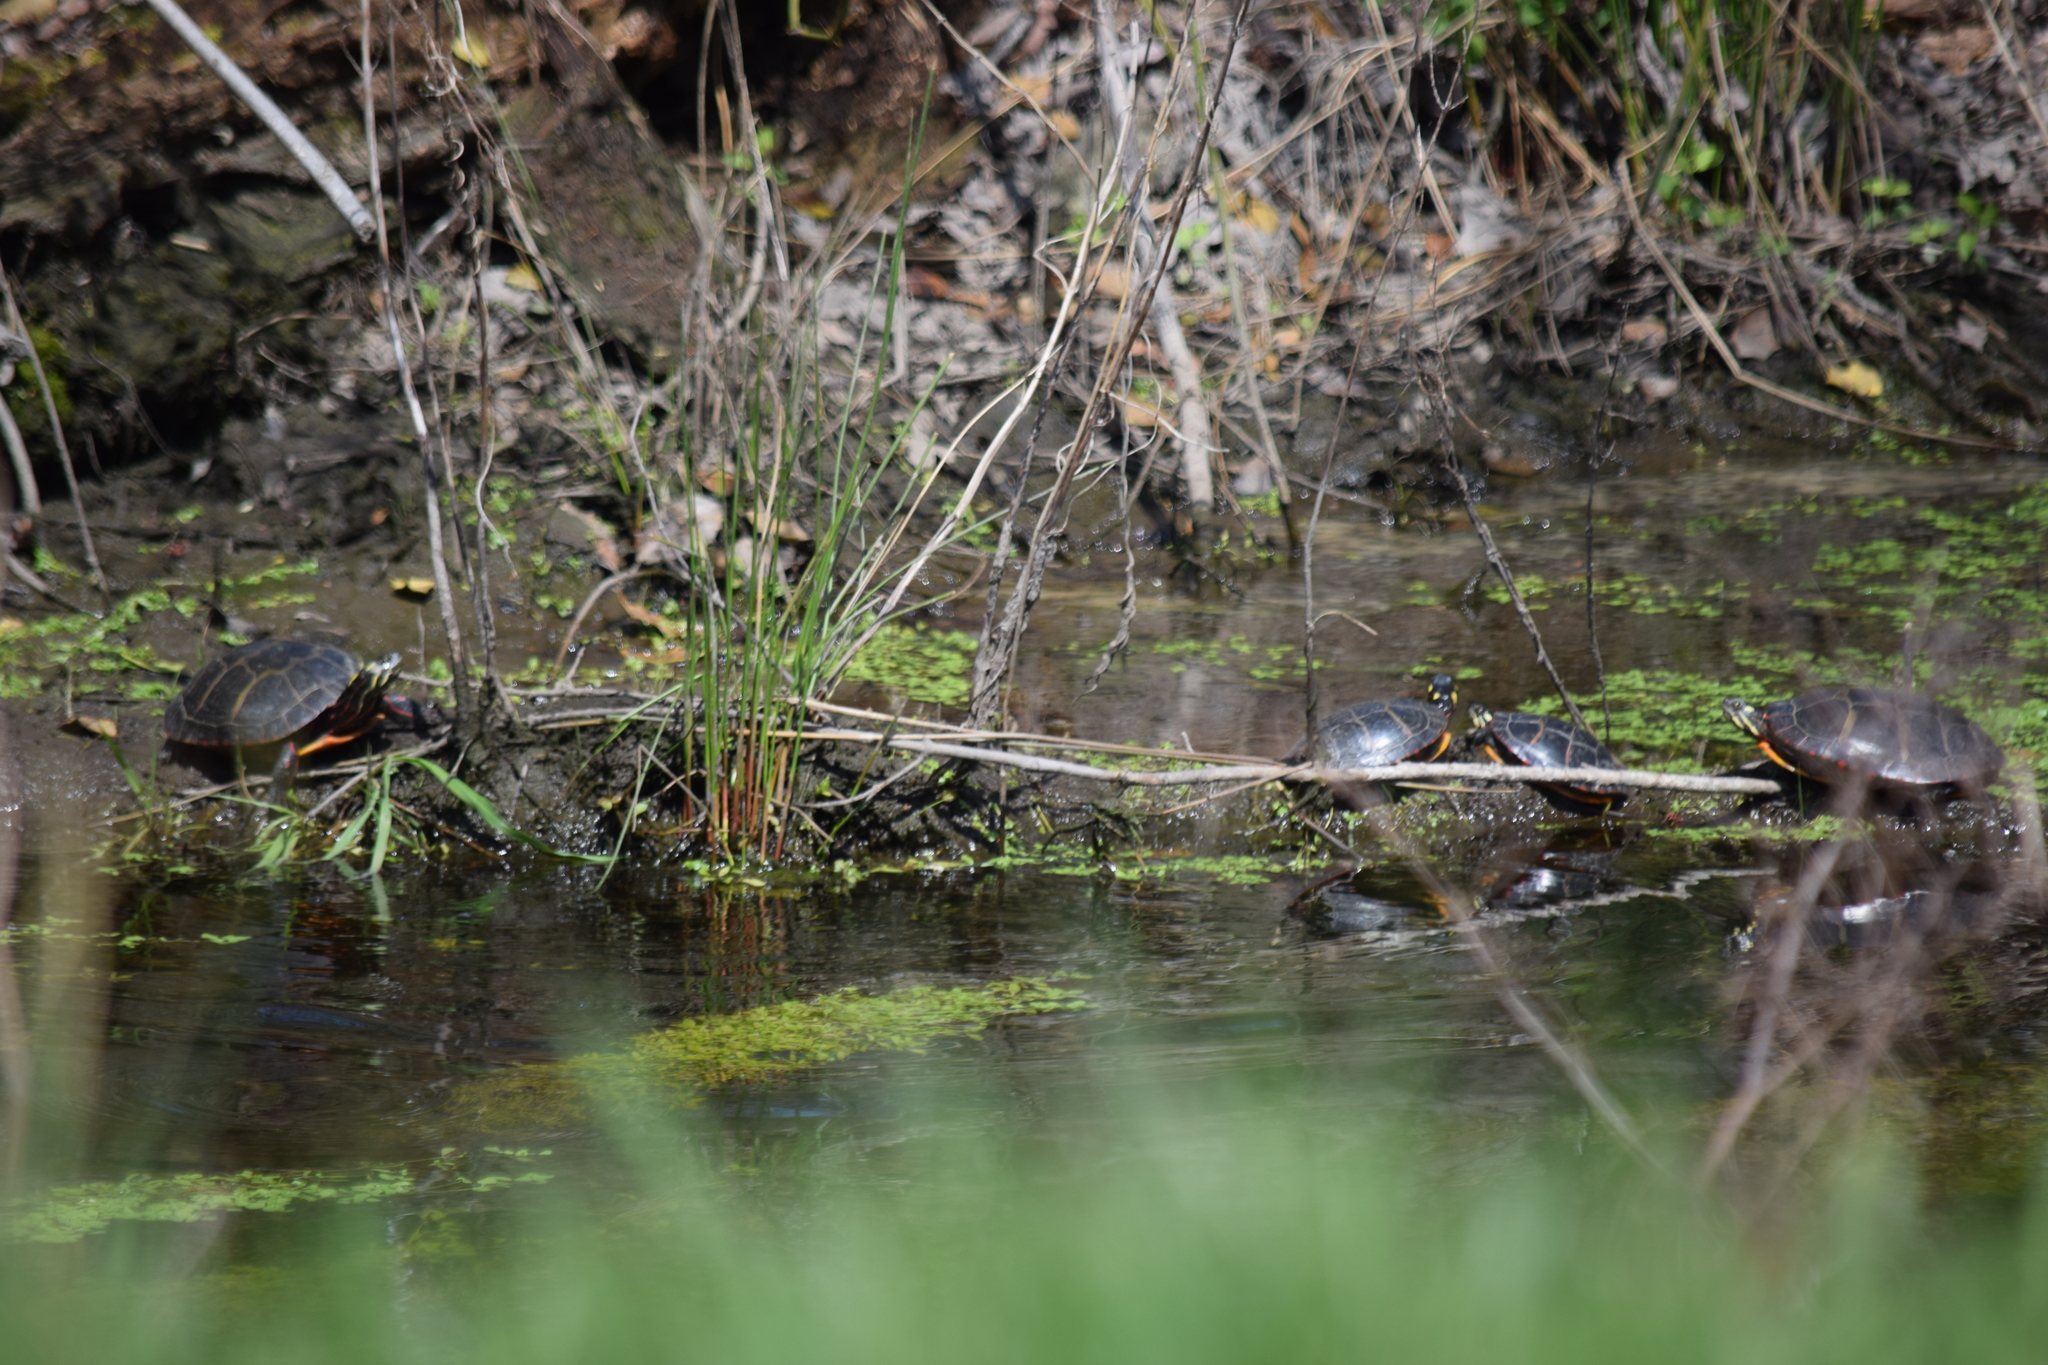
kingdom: Animalia
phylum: Chordata
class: Testudines
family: Emydidae
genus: Chrysemys
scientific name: Chrysemys picta
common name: Painted turtle
